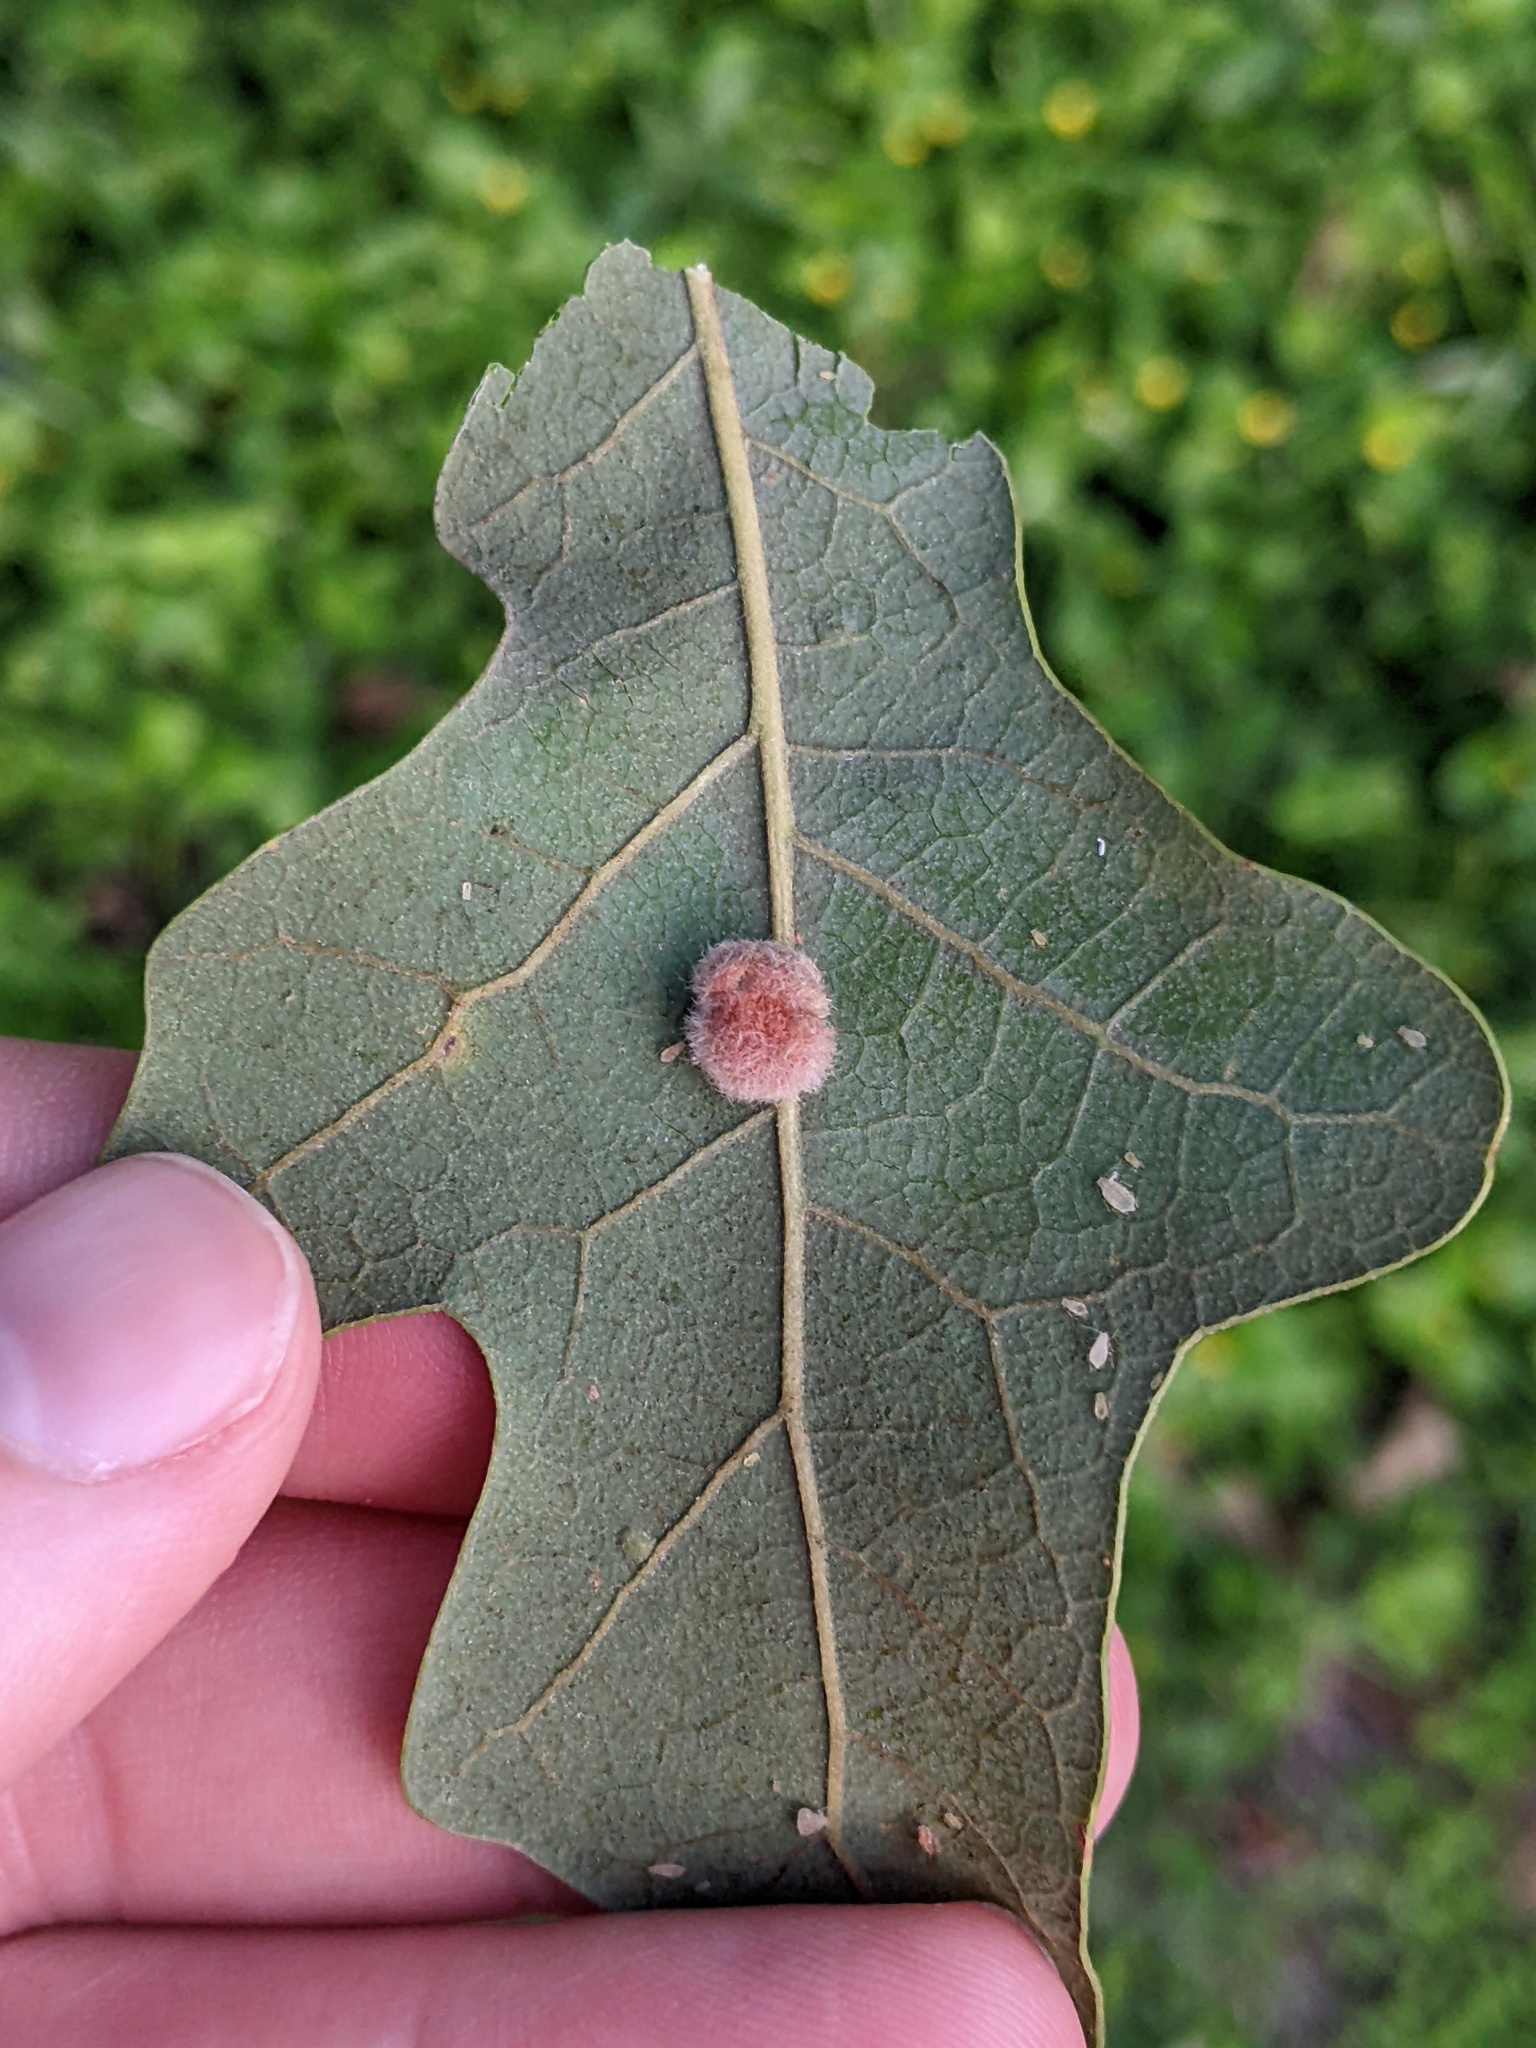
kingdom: Animalia
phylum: Arthropoda
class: Insecta
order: Hymenoptera
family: Cynipidae
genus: Andricus
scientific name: Andricus Druon pattoni
